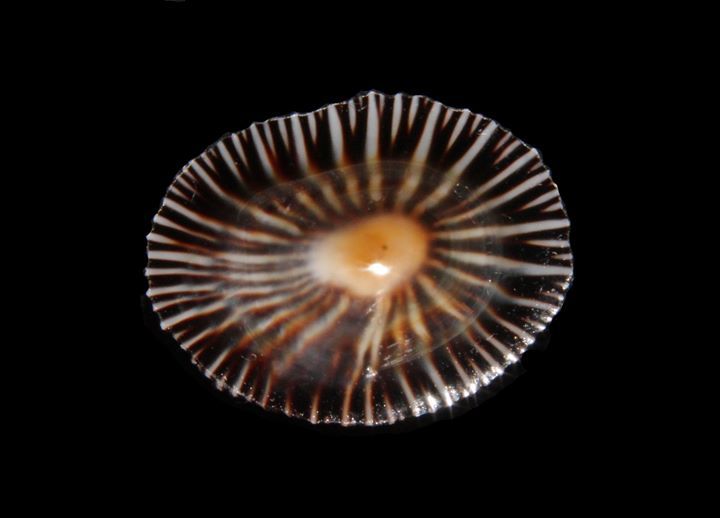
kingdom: Animalia
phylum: Mollusca
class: Gastropoda
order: Siphonariida
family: Siphonariidae
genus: Siphonaria
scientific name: Siphonaria naufragum
